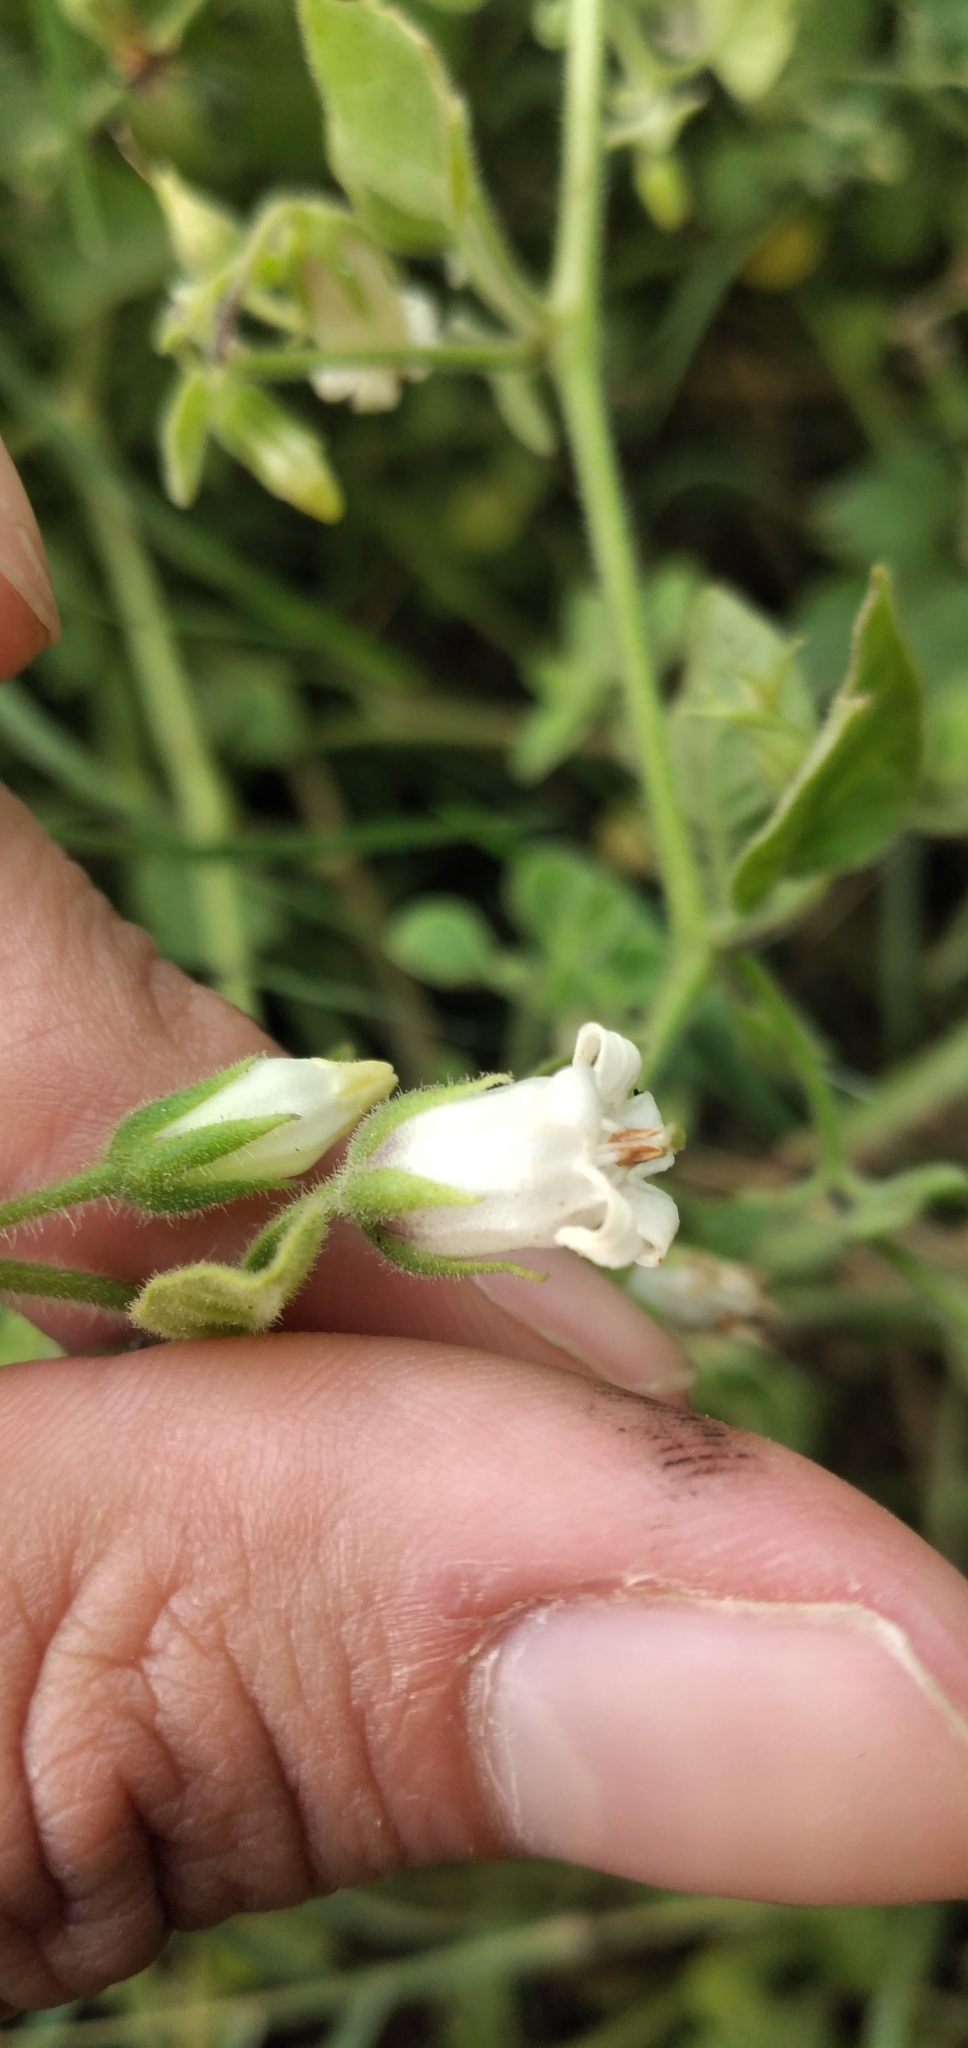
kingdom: Plantae
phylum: Tracheophyta
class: Magnoliopsida
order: Solanales
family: Solanaceae
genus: Salpichroa
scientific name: Salpichroa origanifolia
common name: Lily-of-the-valley-vine
